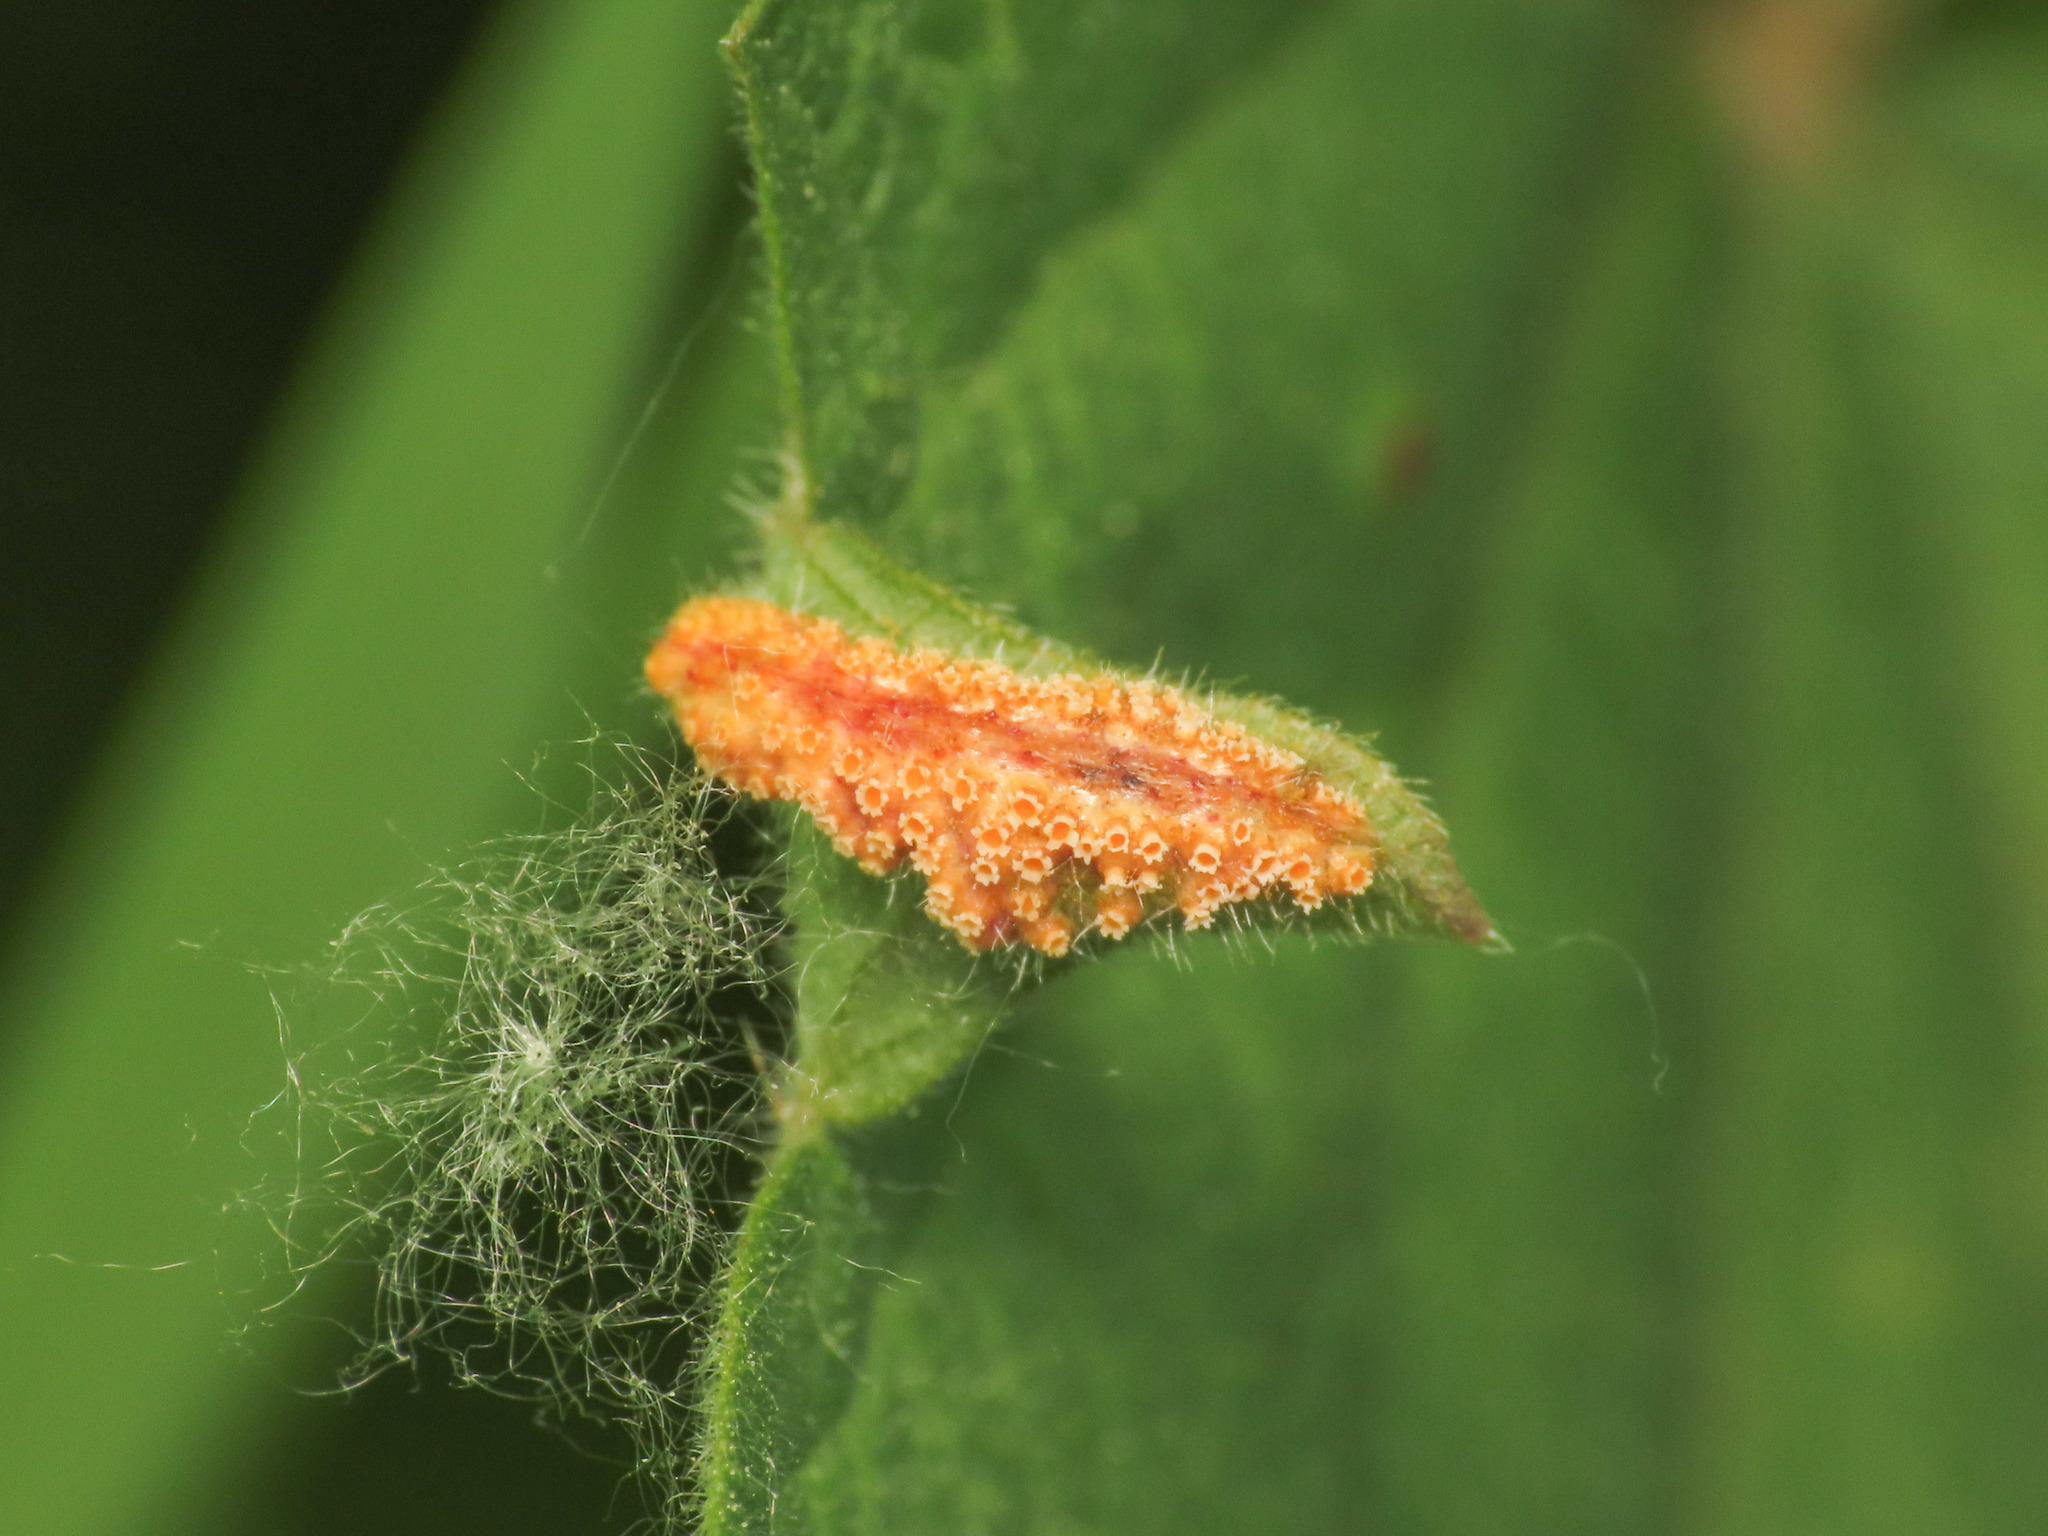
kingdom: Fungi
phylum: Basidiomycota
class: Pucciniomycetes
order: Pucciniales
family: Pucciniaceae
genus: Puccinia
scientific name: Puccinia urticata
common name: Nettle clustercup rust fungus
